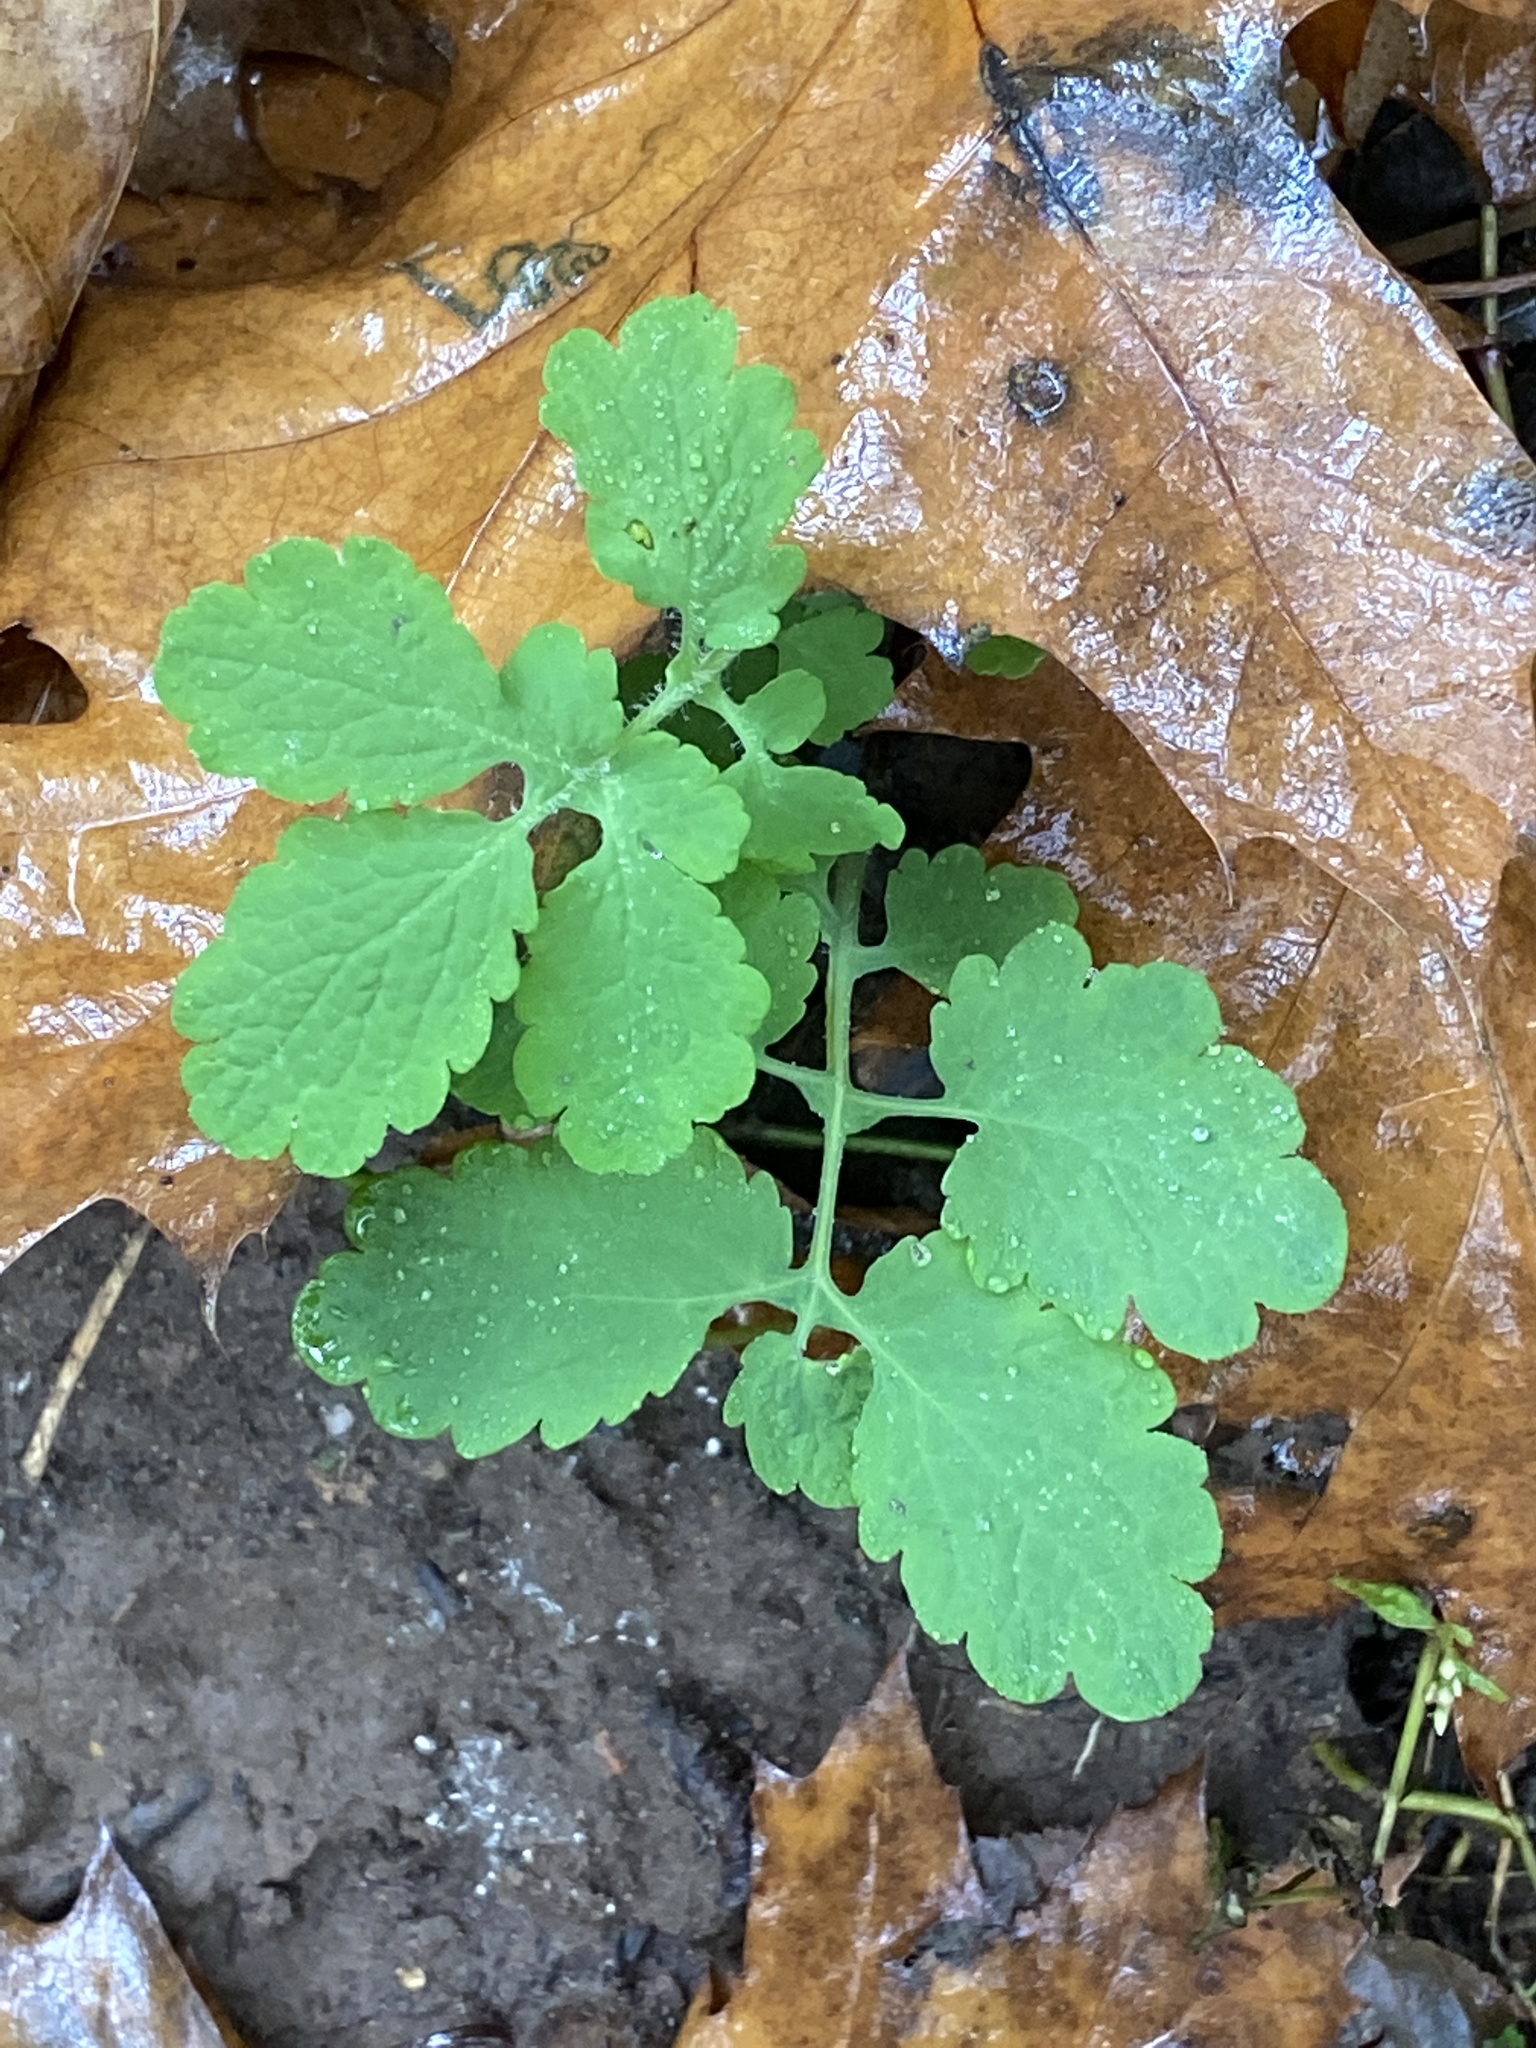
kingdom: Plantae
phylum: Tracheophyta
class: Magnoliopsida
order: Ranunculales
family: Papaveraceae
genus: Chelidonium
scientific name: Chelidonium majus
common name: Greater celandine
